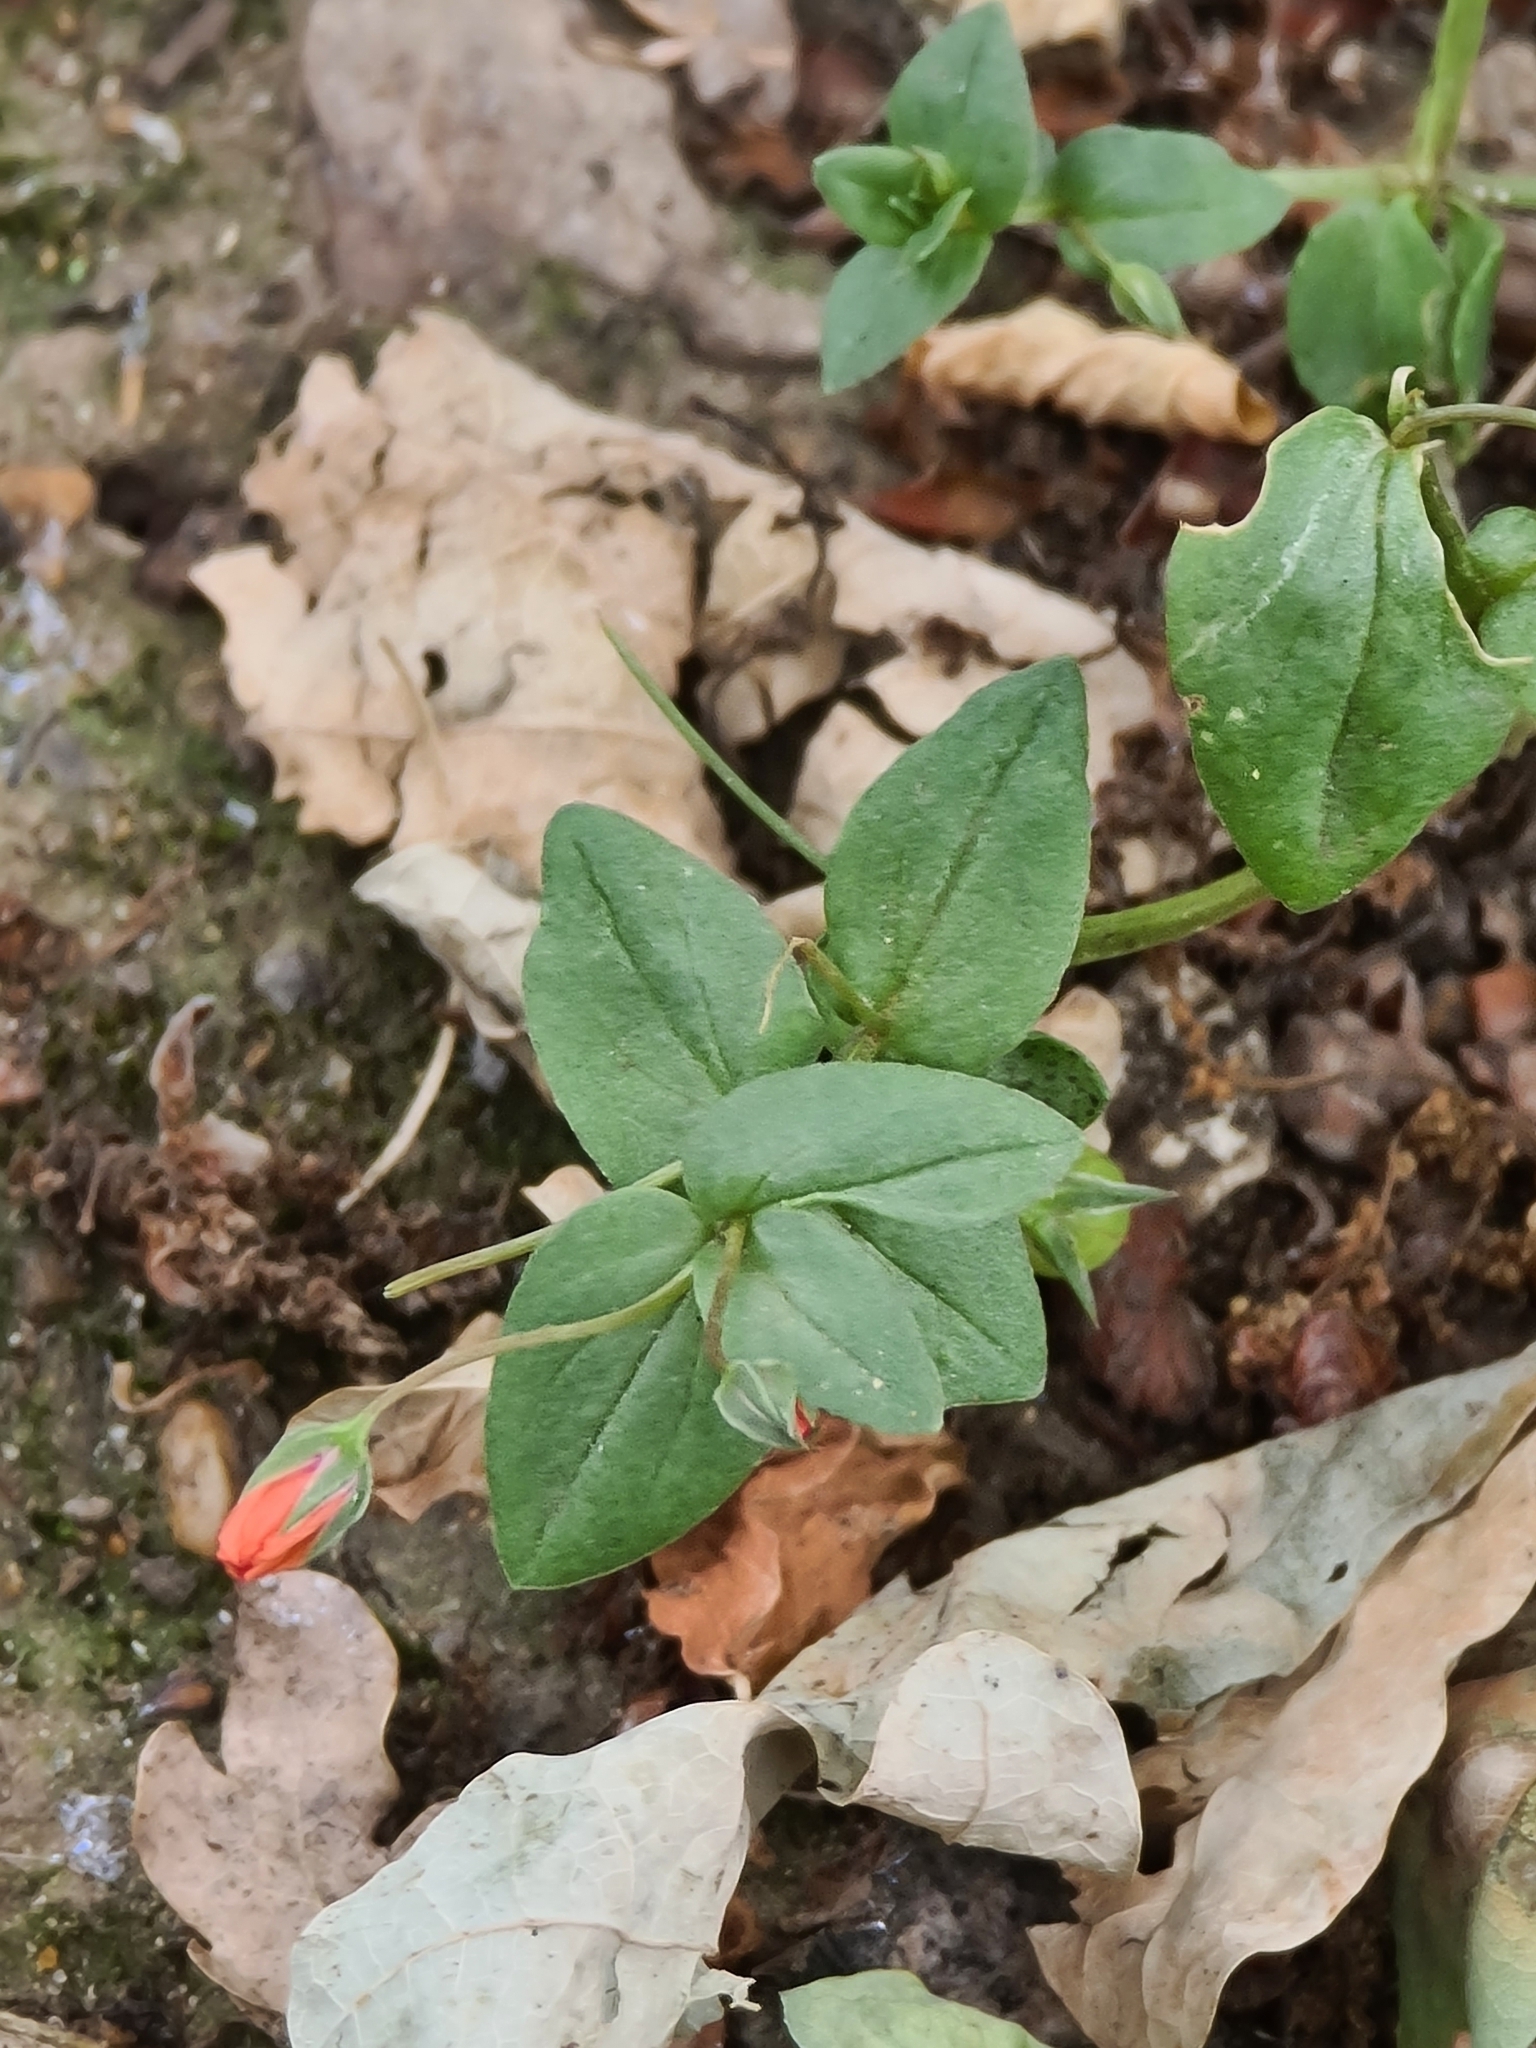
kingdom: Plantae
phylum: Tracheophyta
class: Magnoliopsida
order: Ericales
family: Primulaceae
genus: Lysimachia
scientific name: Lysimachia arvensis
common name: Scarlet pimpernel
